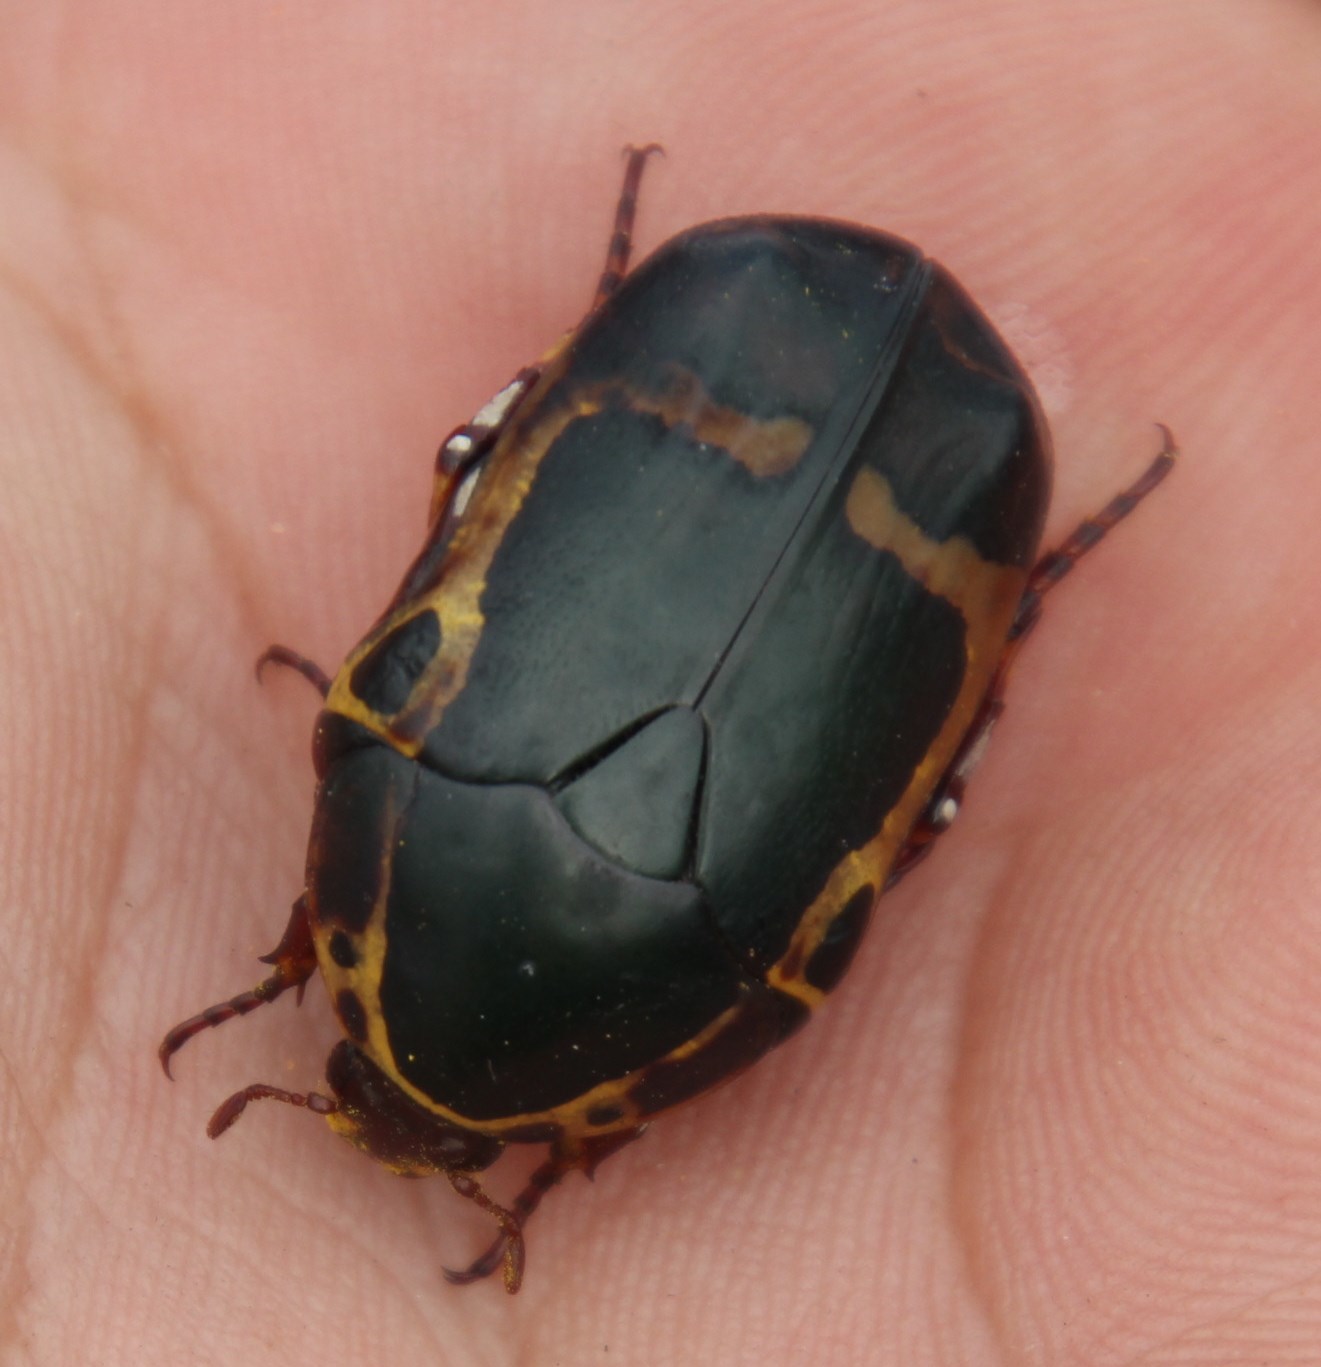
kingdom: Animalia
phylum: Arthropoda
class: Insecta
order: Coleoptera
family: Scarabaeidae
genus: Pachnoda
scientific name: Pachnoda sinuata
